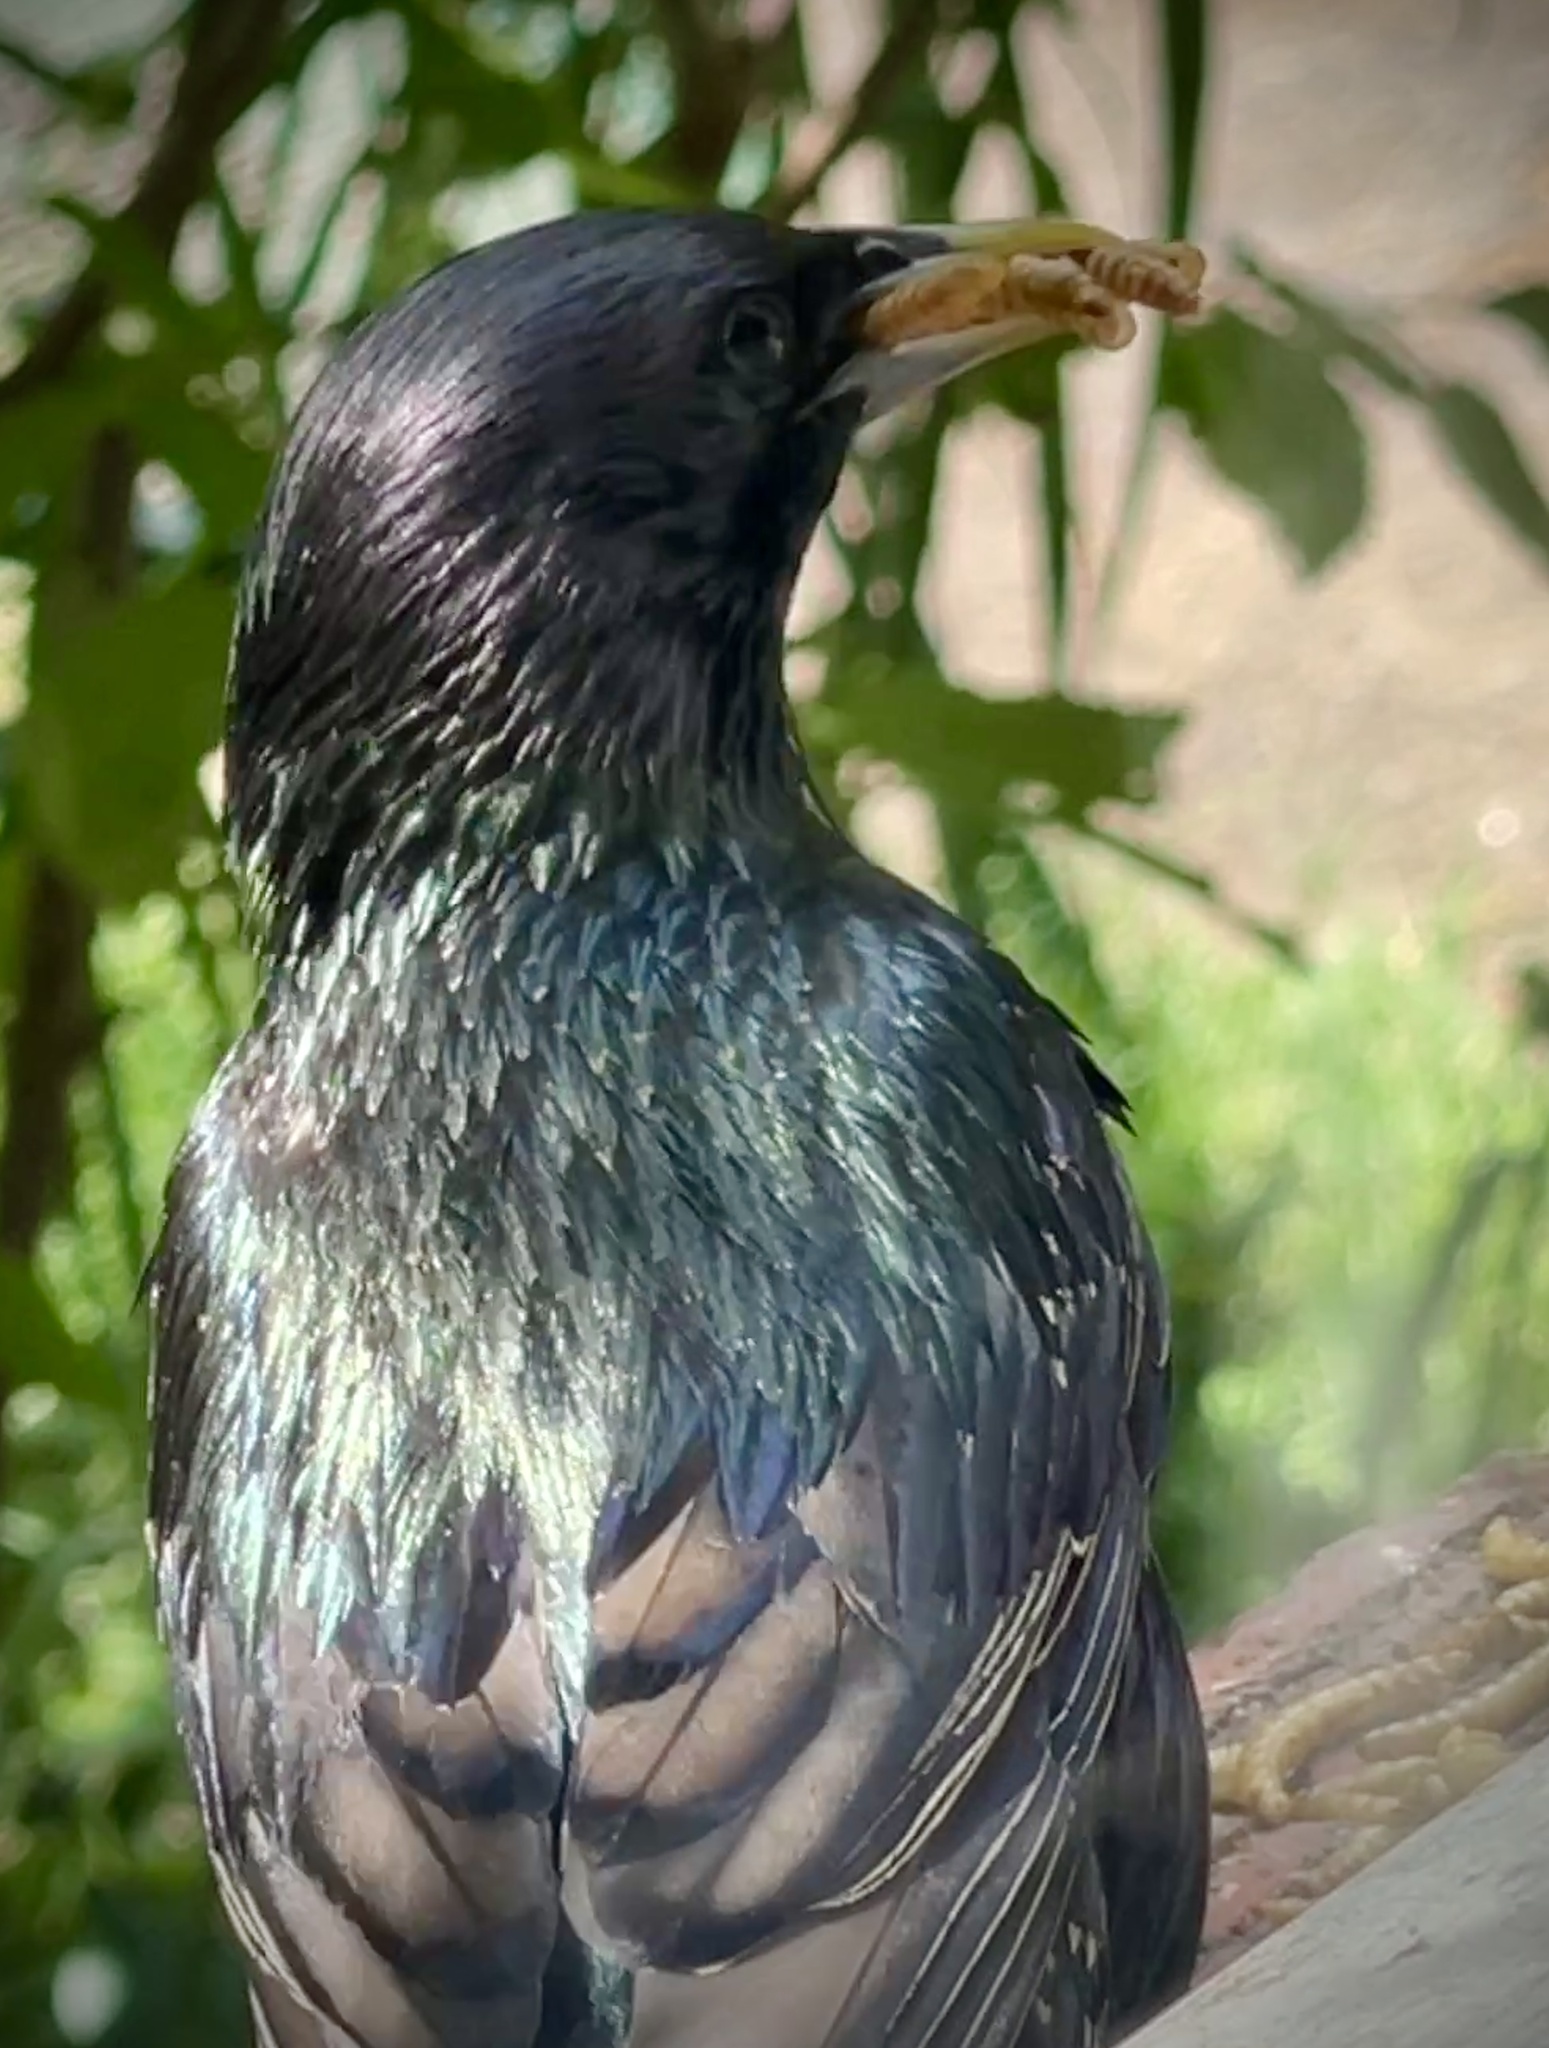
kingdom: Animalia
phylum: Chordata
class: Aves
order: Passeriformes
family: Sturnidae
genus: Sturnus
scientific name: Sturnus vulgaris
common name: Common starling
